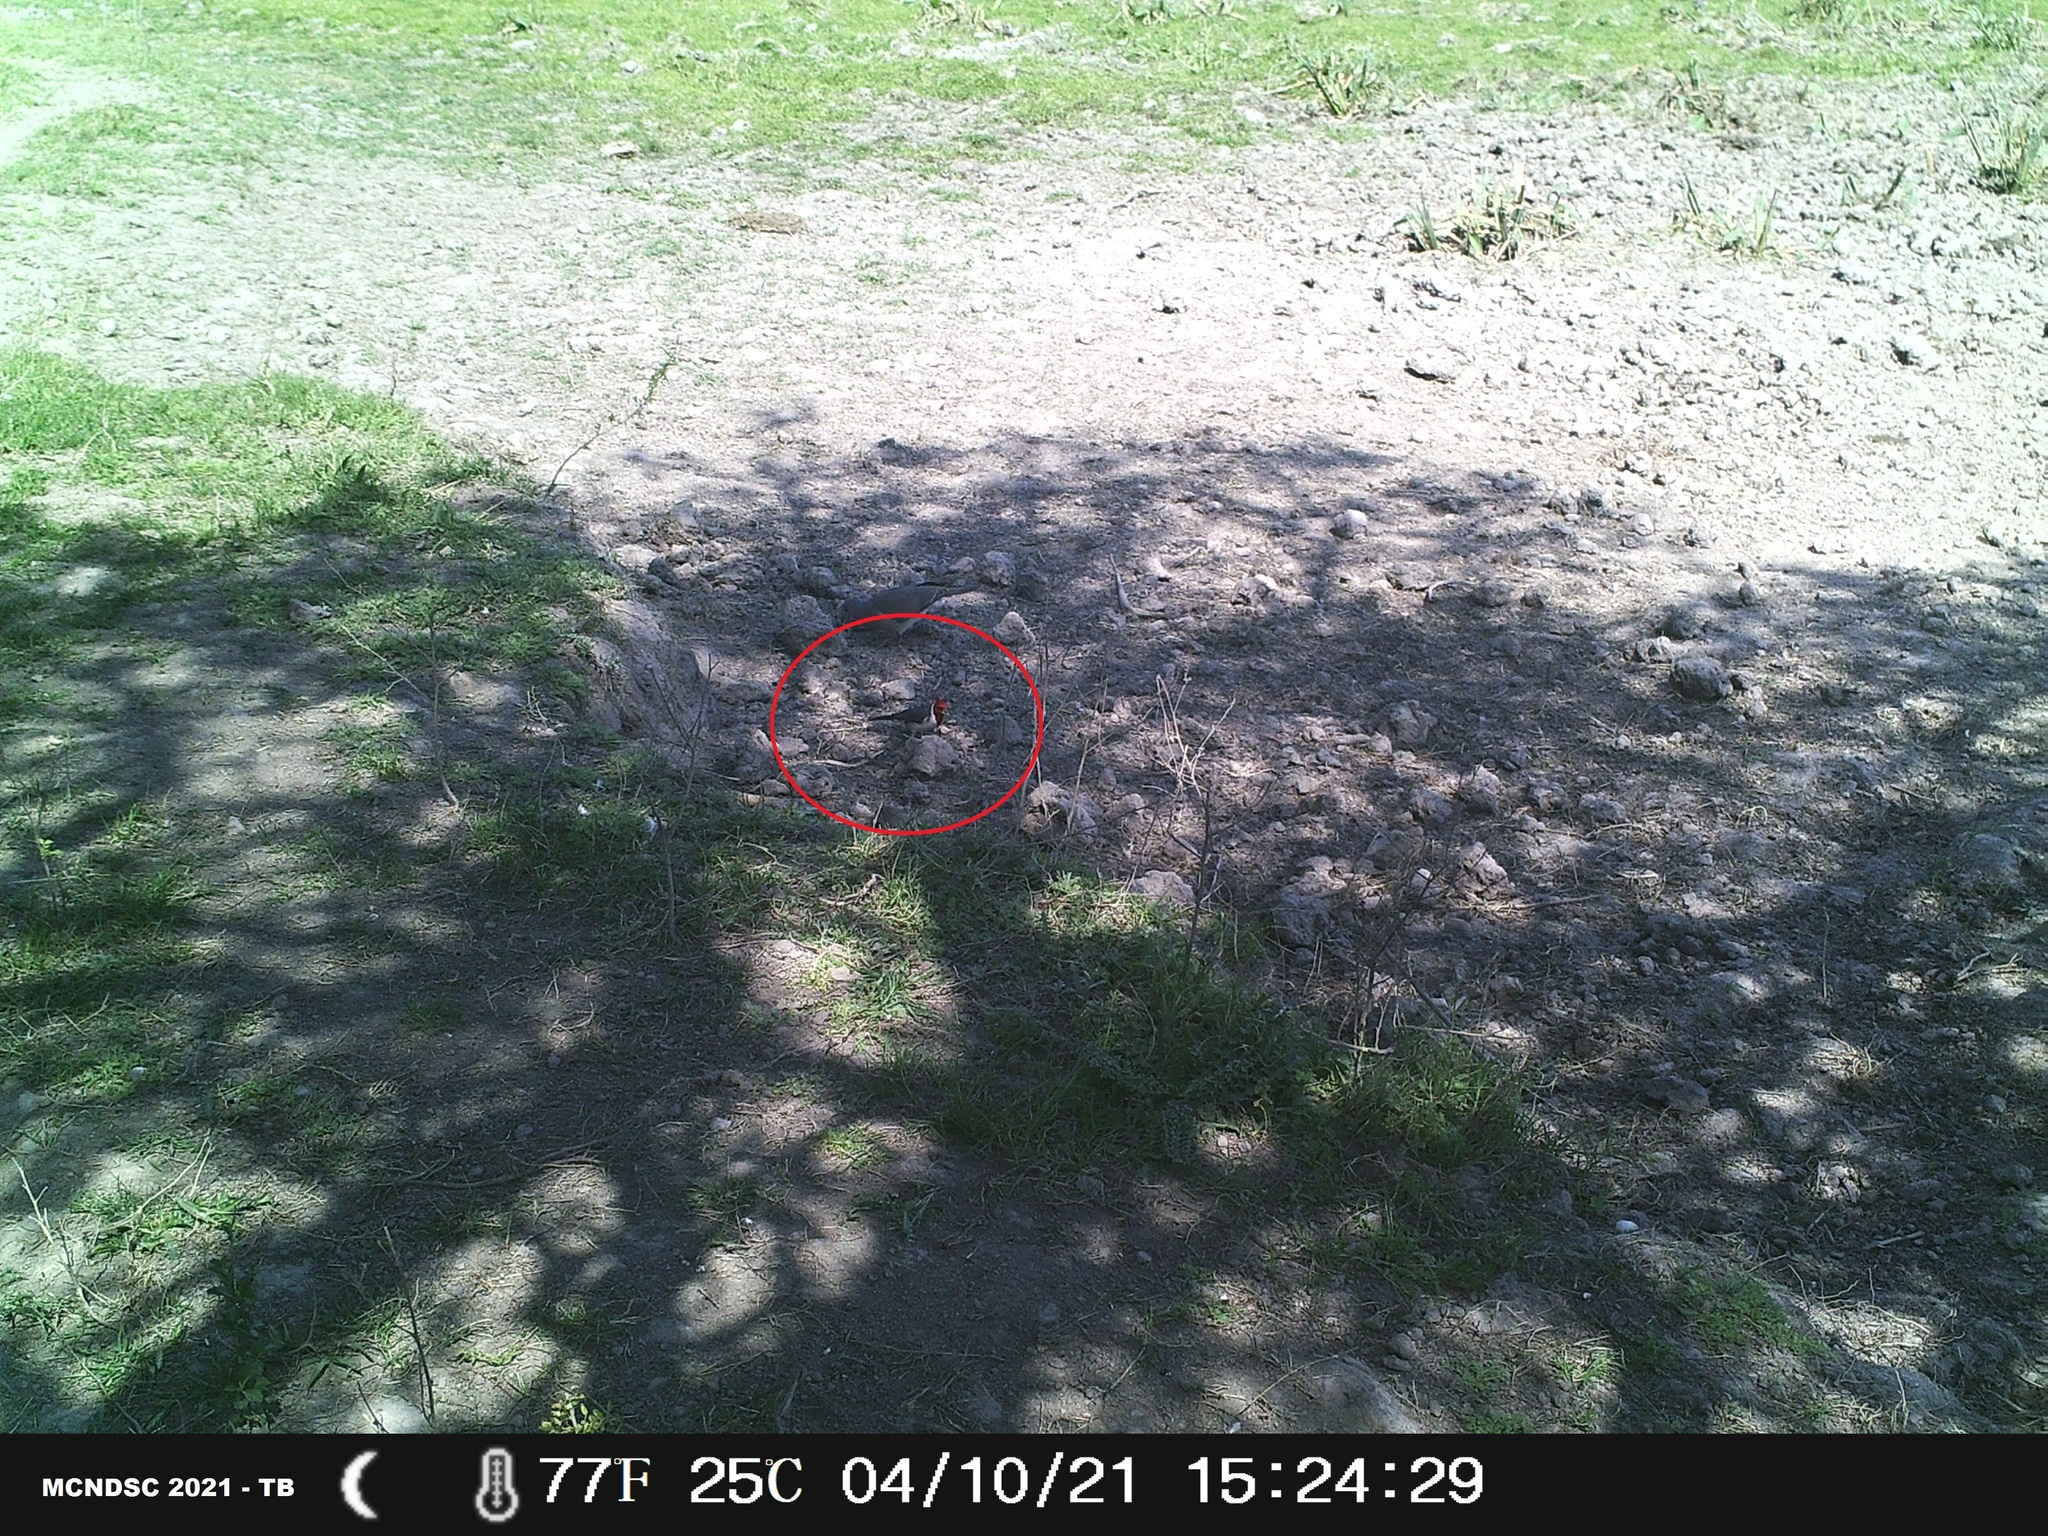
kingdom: Animalia
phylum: Chordata
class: Aves
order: Passeriformes
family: Thraupidae
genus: Paroaria
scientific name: Paroaria coronata
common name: Red-crested cardinal
